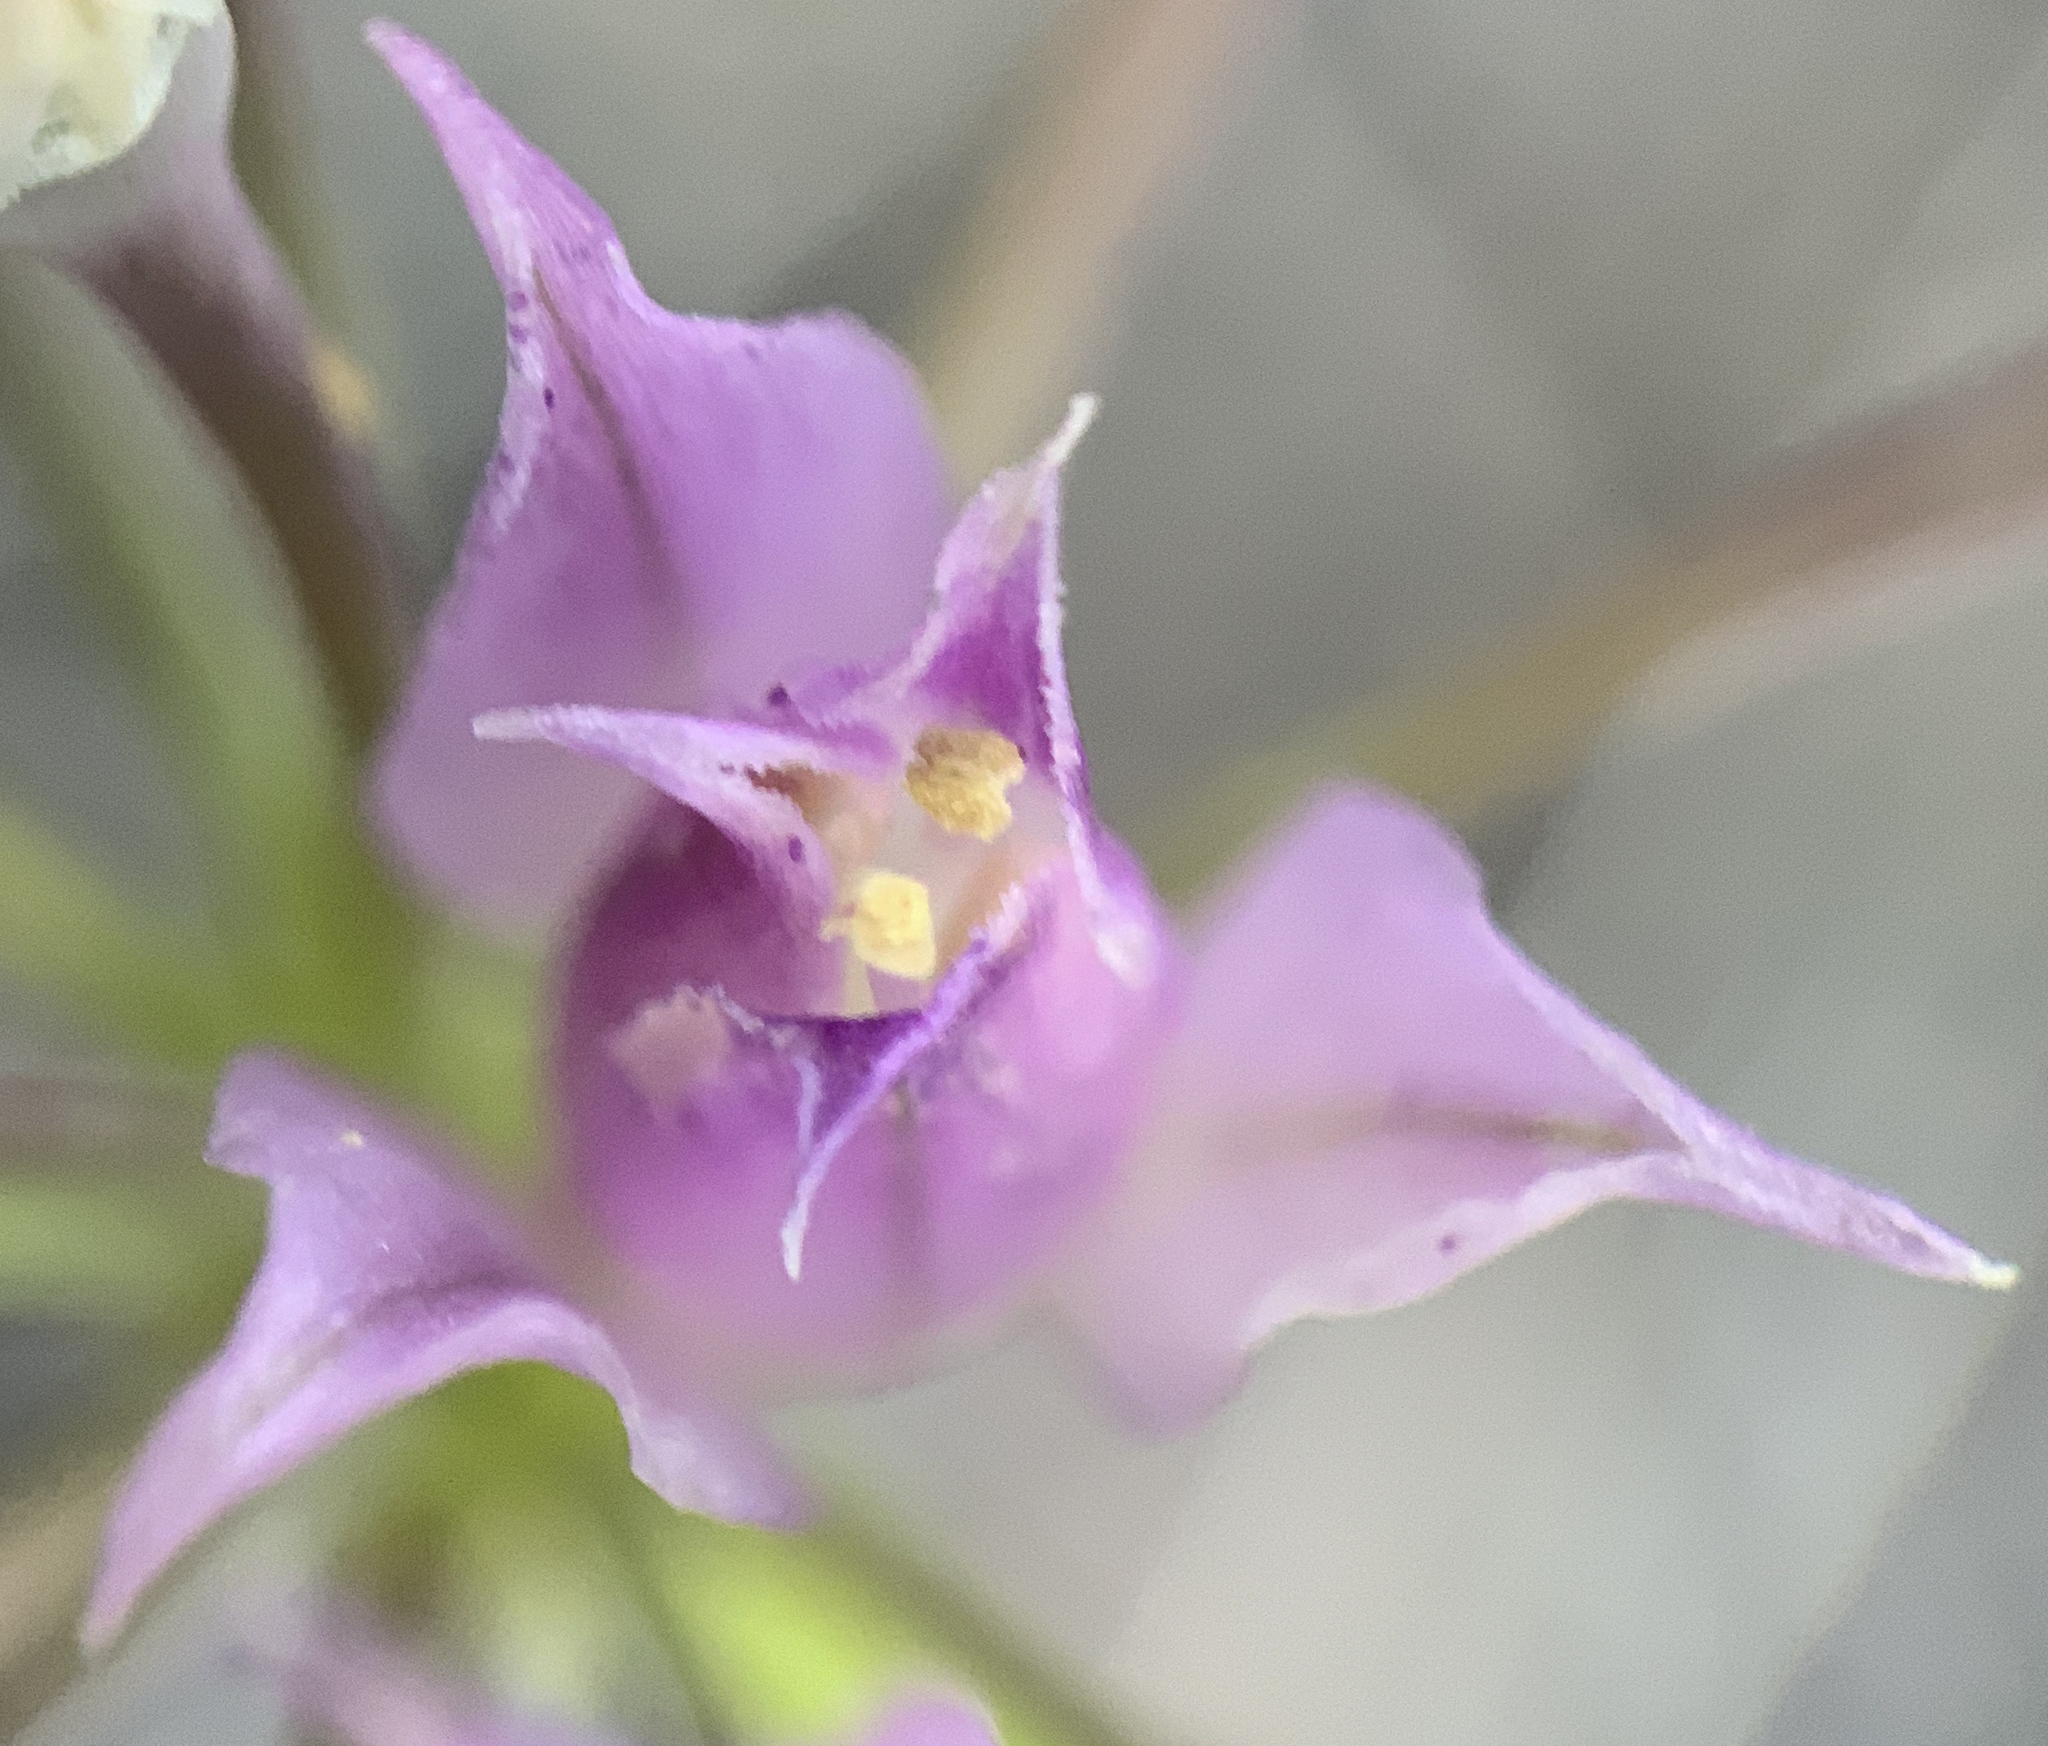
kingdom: Plantae
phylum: Tracheophyta
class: Liliopsida
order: Asparagales
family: Amaryllidaceae
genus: Allium
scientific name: Allium acuminatum
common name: Hooker's onion
